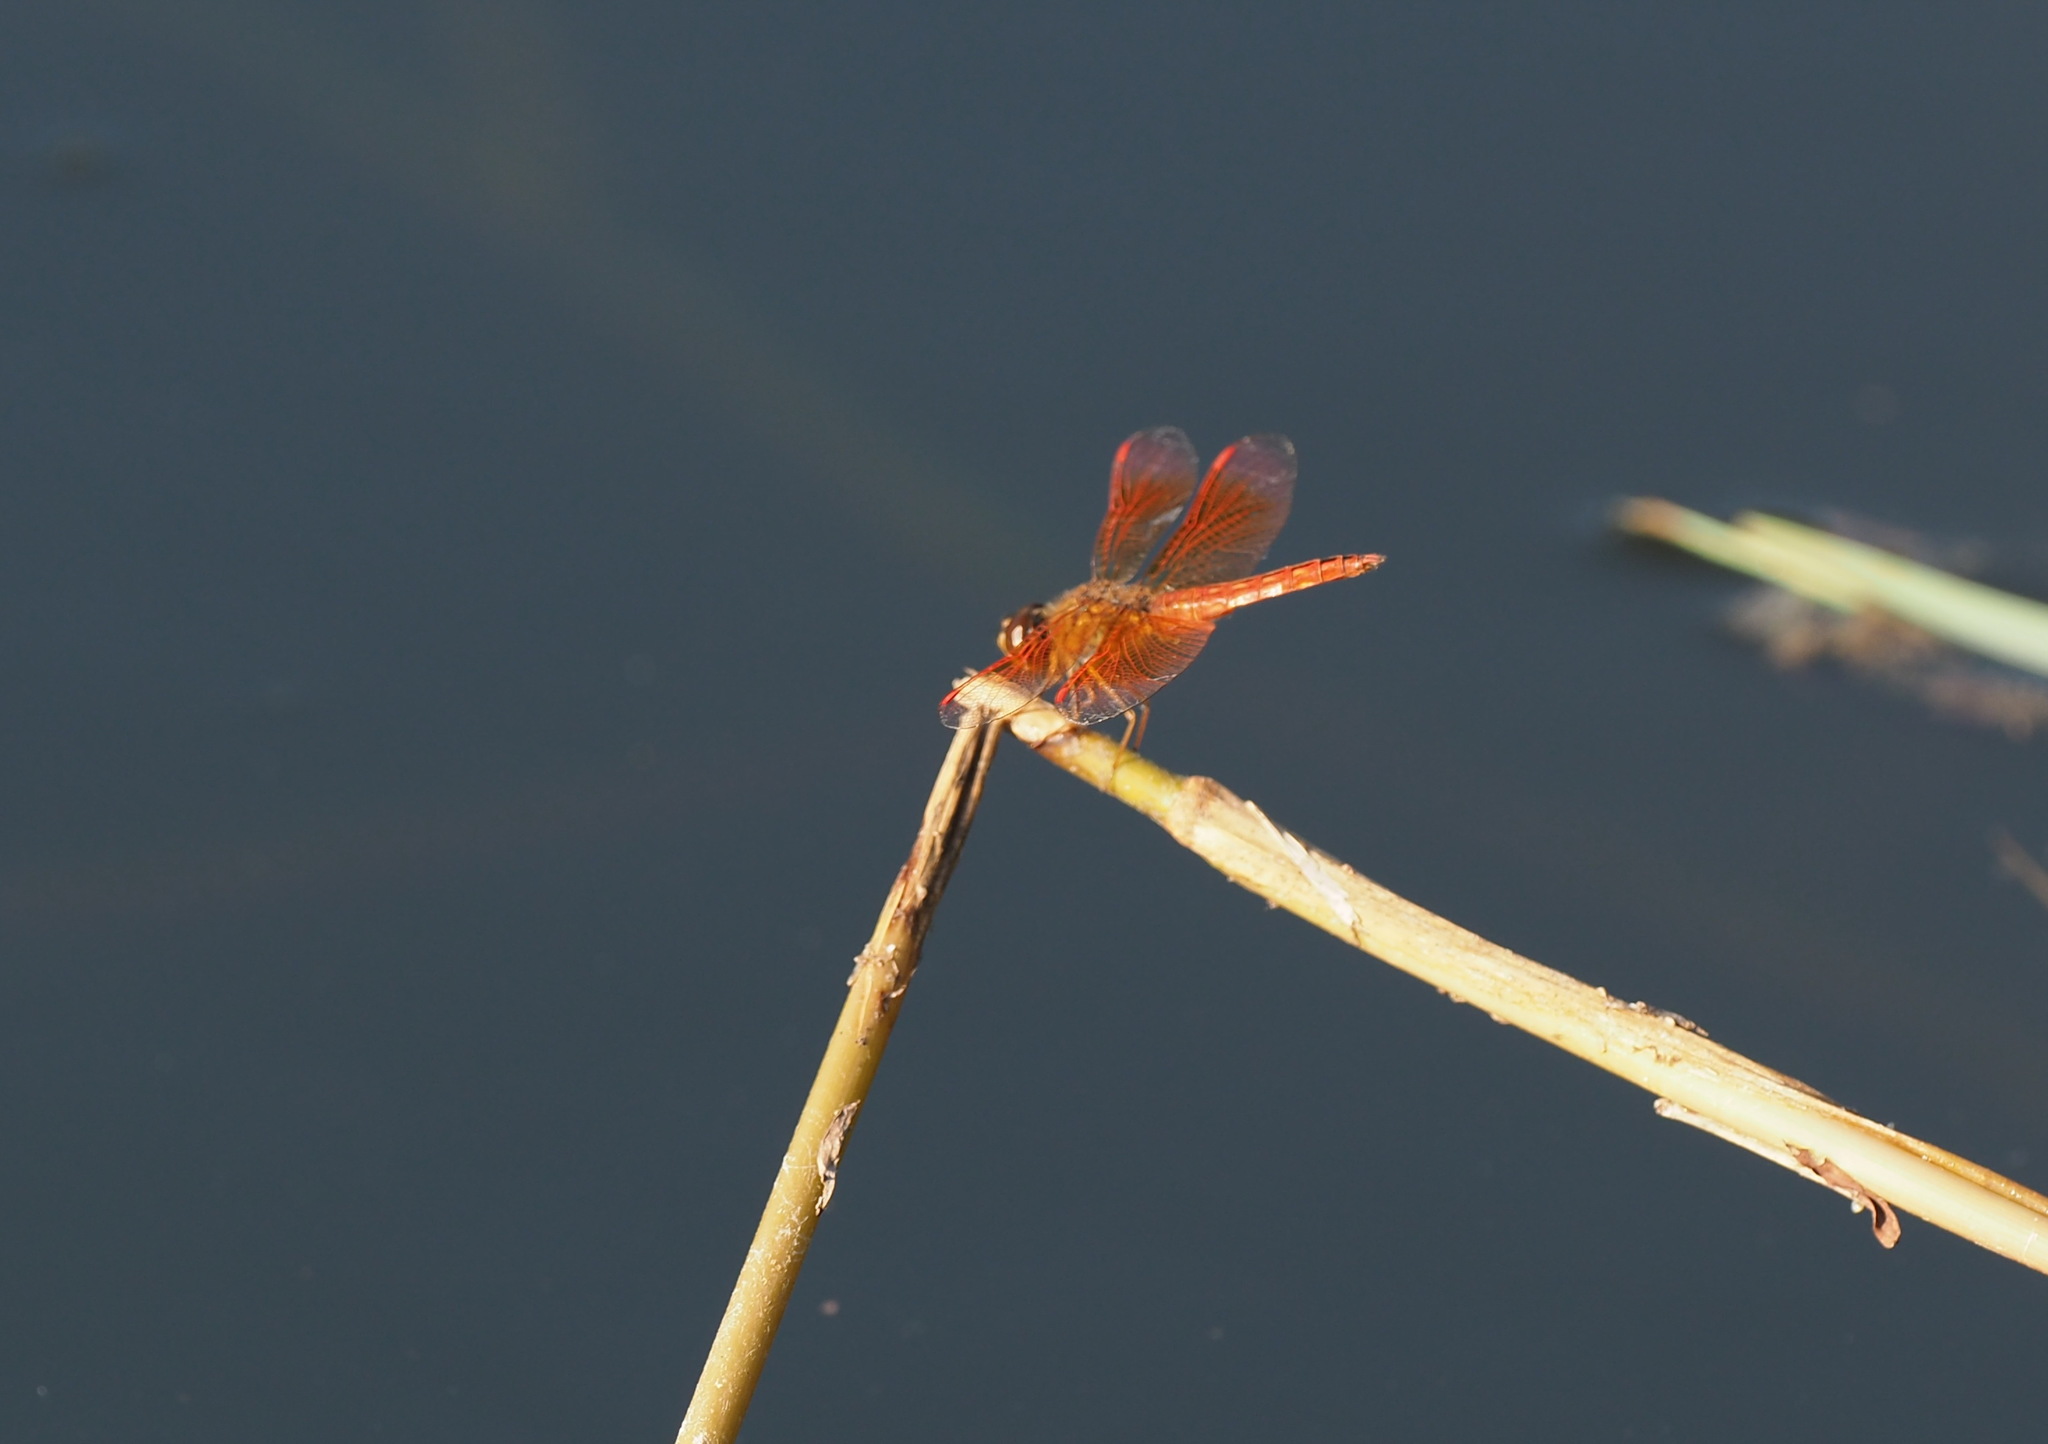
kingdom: Animalia
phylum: Arthropoda
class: Insecta
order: Odonata
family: Libellulidae
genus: Brachythemis
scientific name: Brachythemis contaminata
